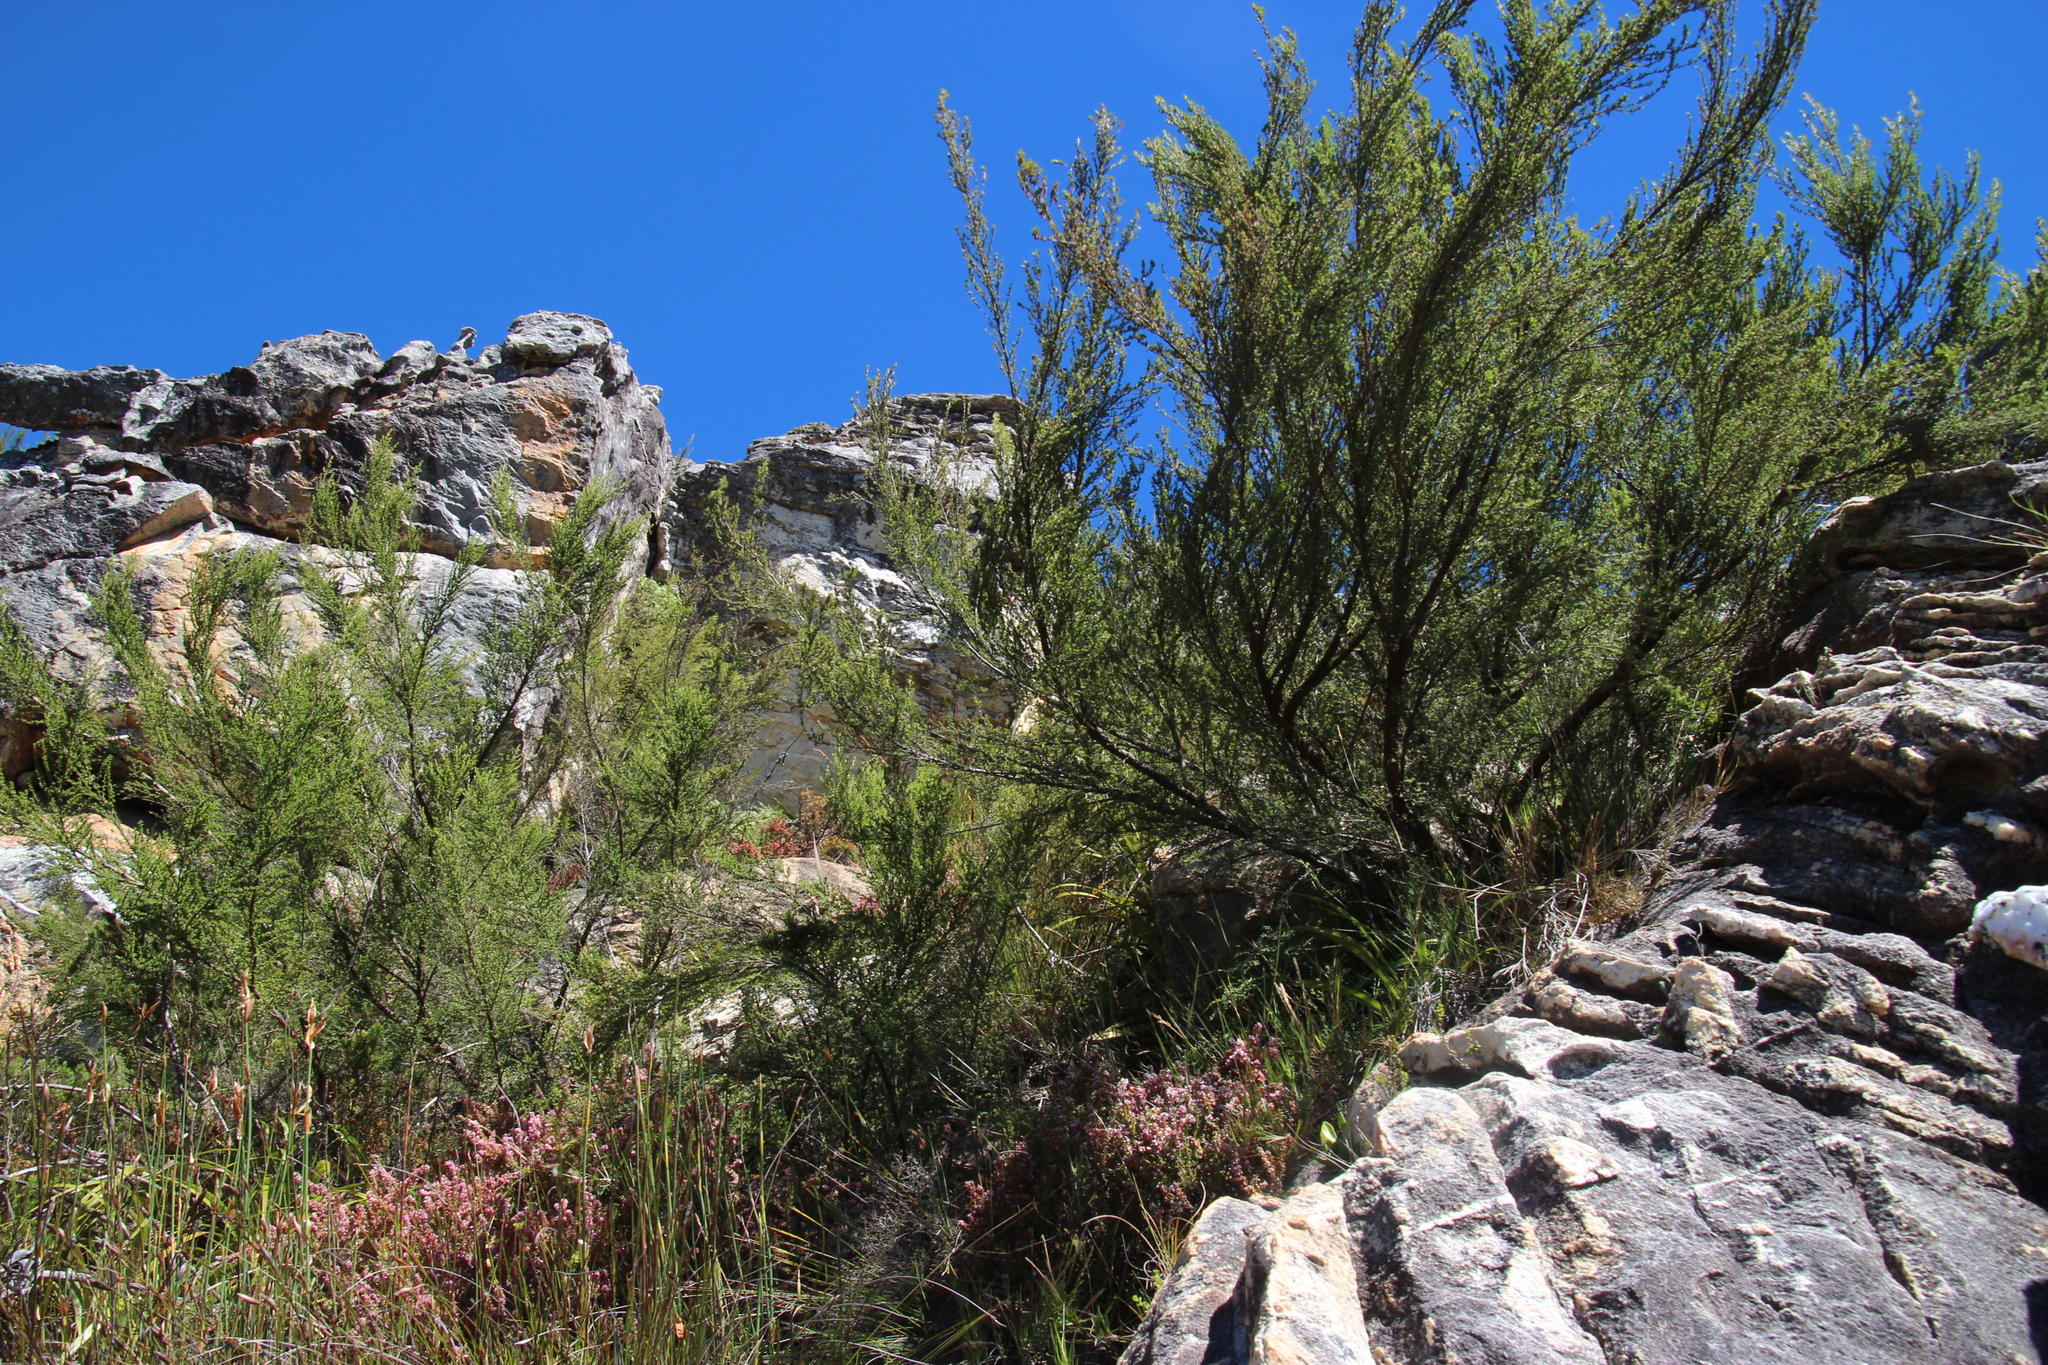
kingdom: Plantae
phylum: Tracheophyta
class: Magnoliopsida
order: Rosales
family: Rosaceae
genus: Cliffortia
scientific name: Cliffortia serpyllifolia
